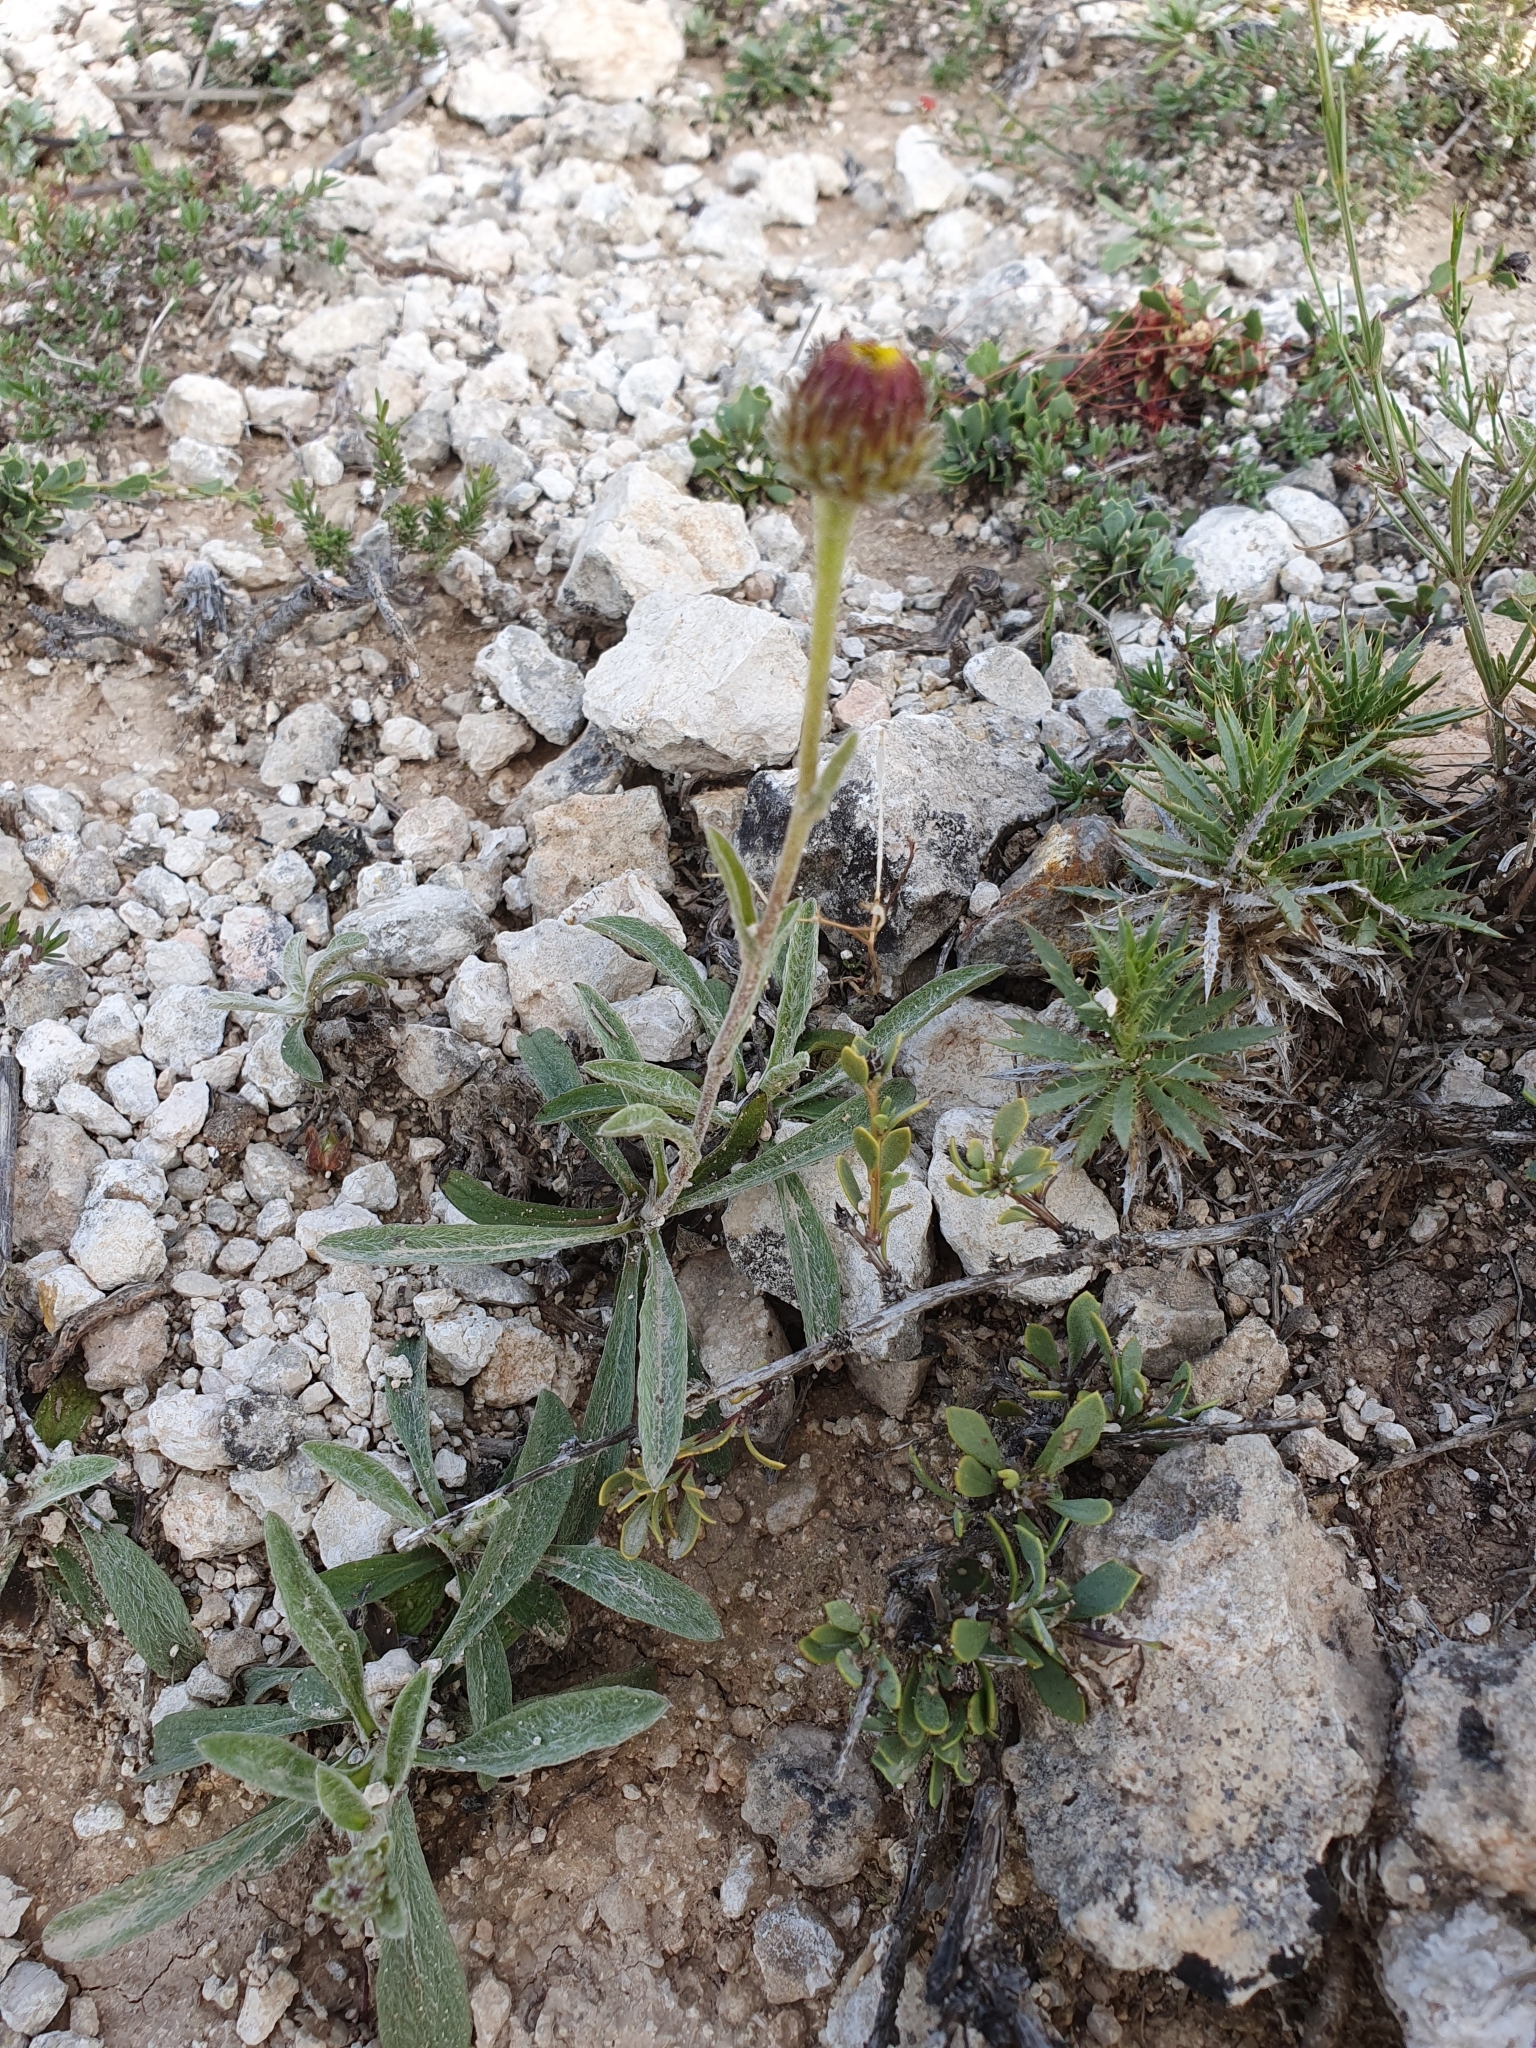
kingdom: Plantae
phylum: Tracheophyta
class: Magnoliopsida
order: Asterales
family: Asteraceae
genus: Pentanema
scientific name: Pentanema montanum
